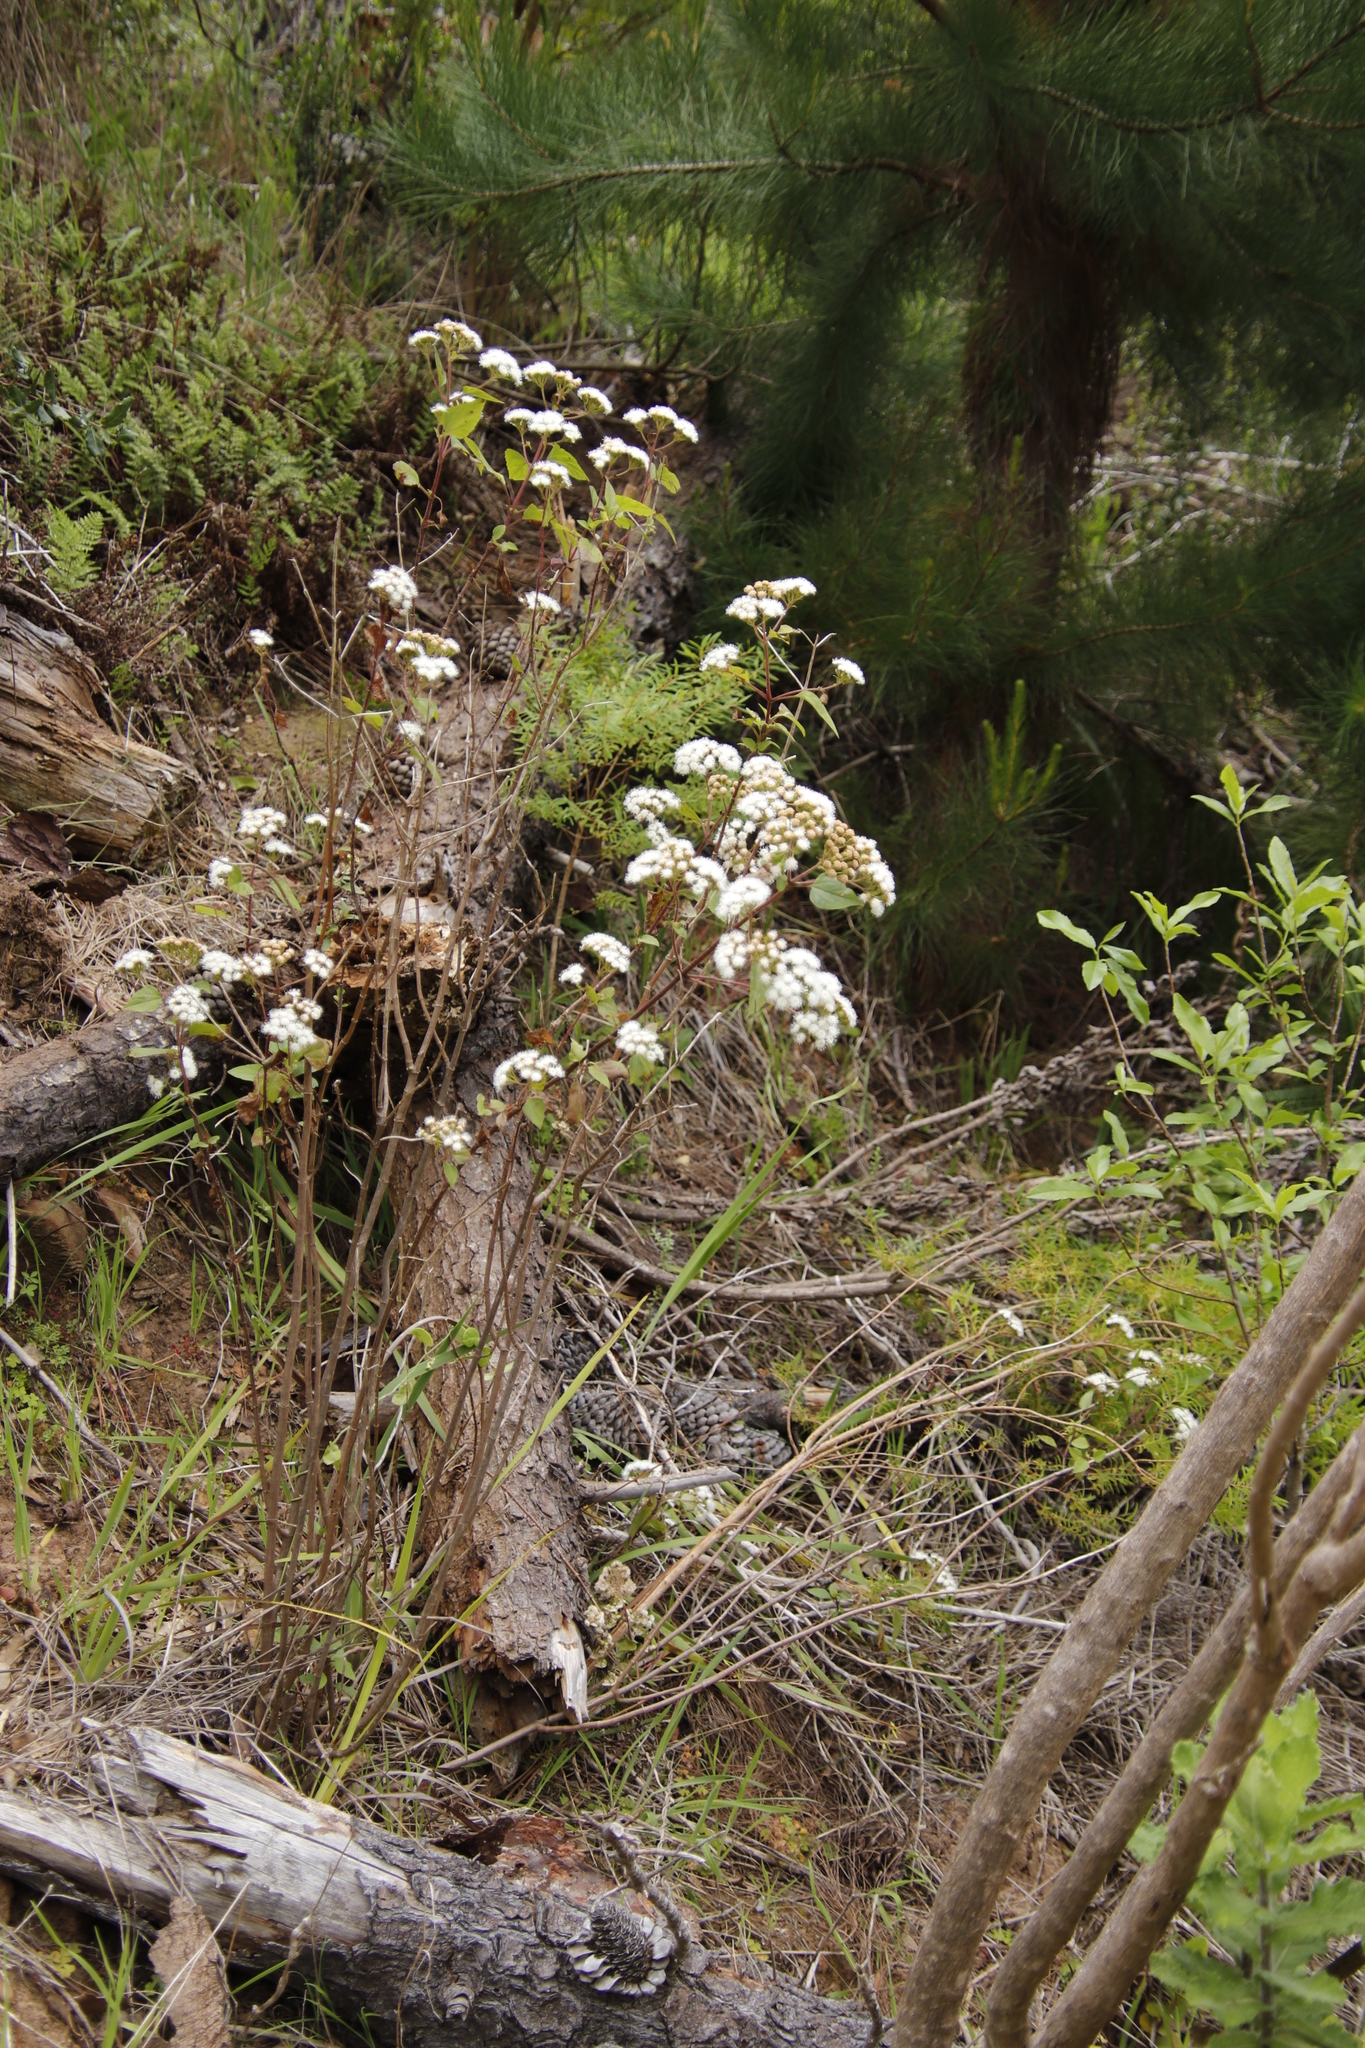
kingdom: Plantae
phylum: Tracheophyta
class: Magnoliopsida
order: Asterales
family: Asteraceae
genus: Ageratina
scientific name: Ageratina adenophora
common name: Sticky snakeroot
